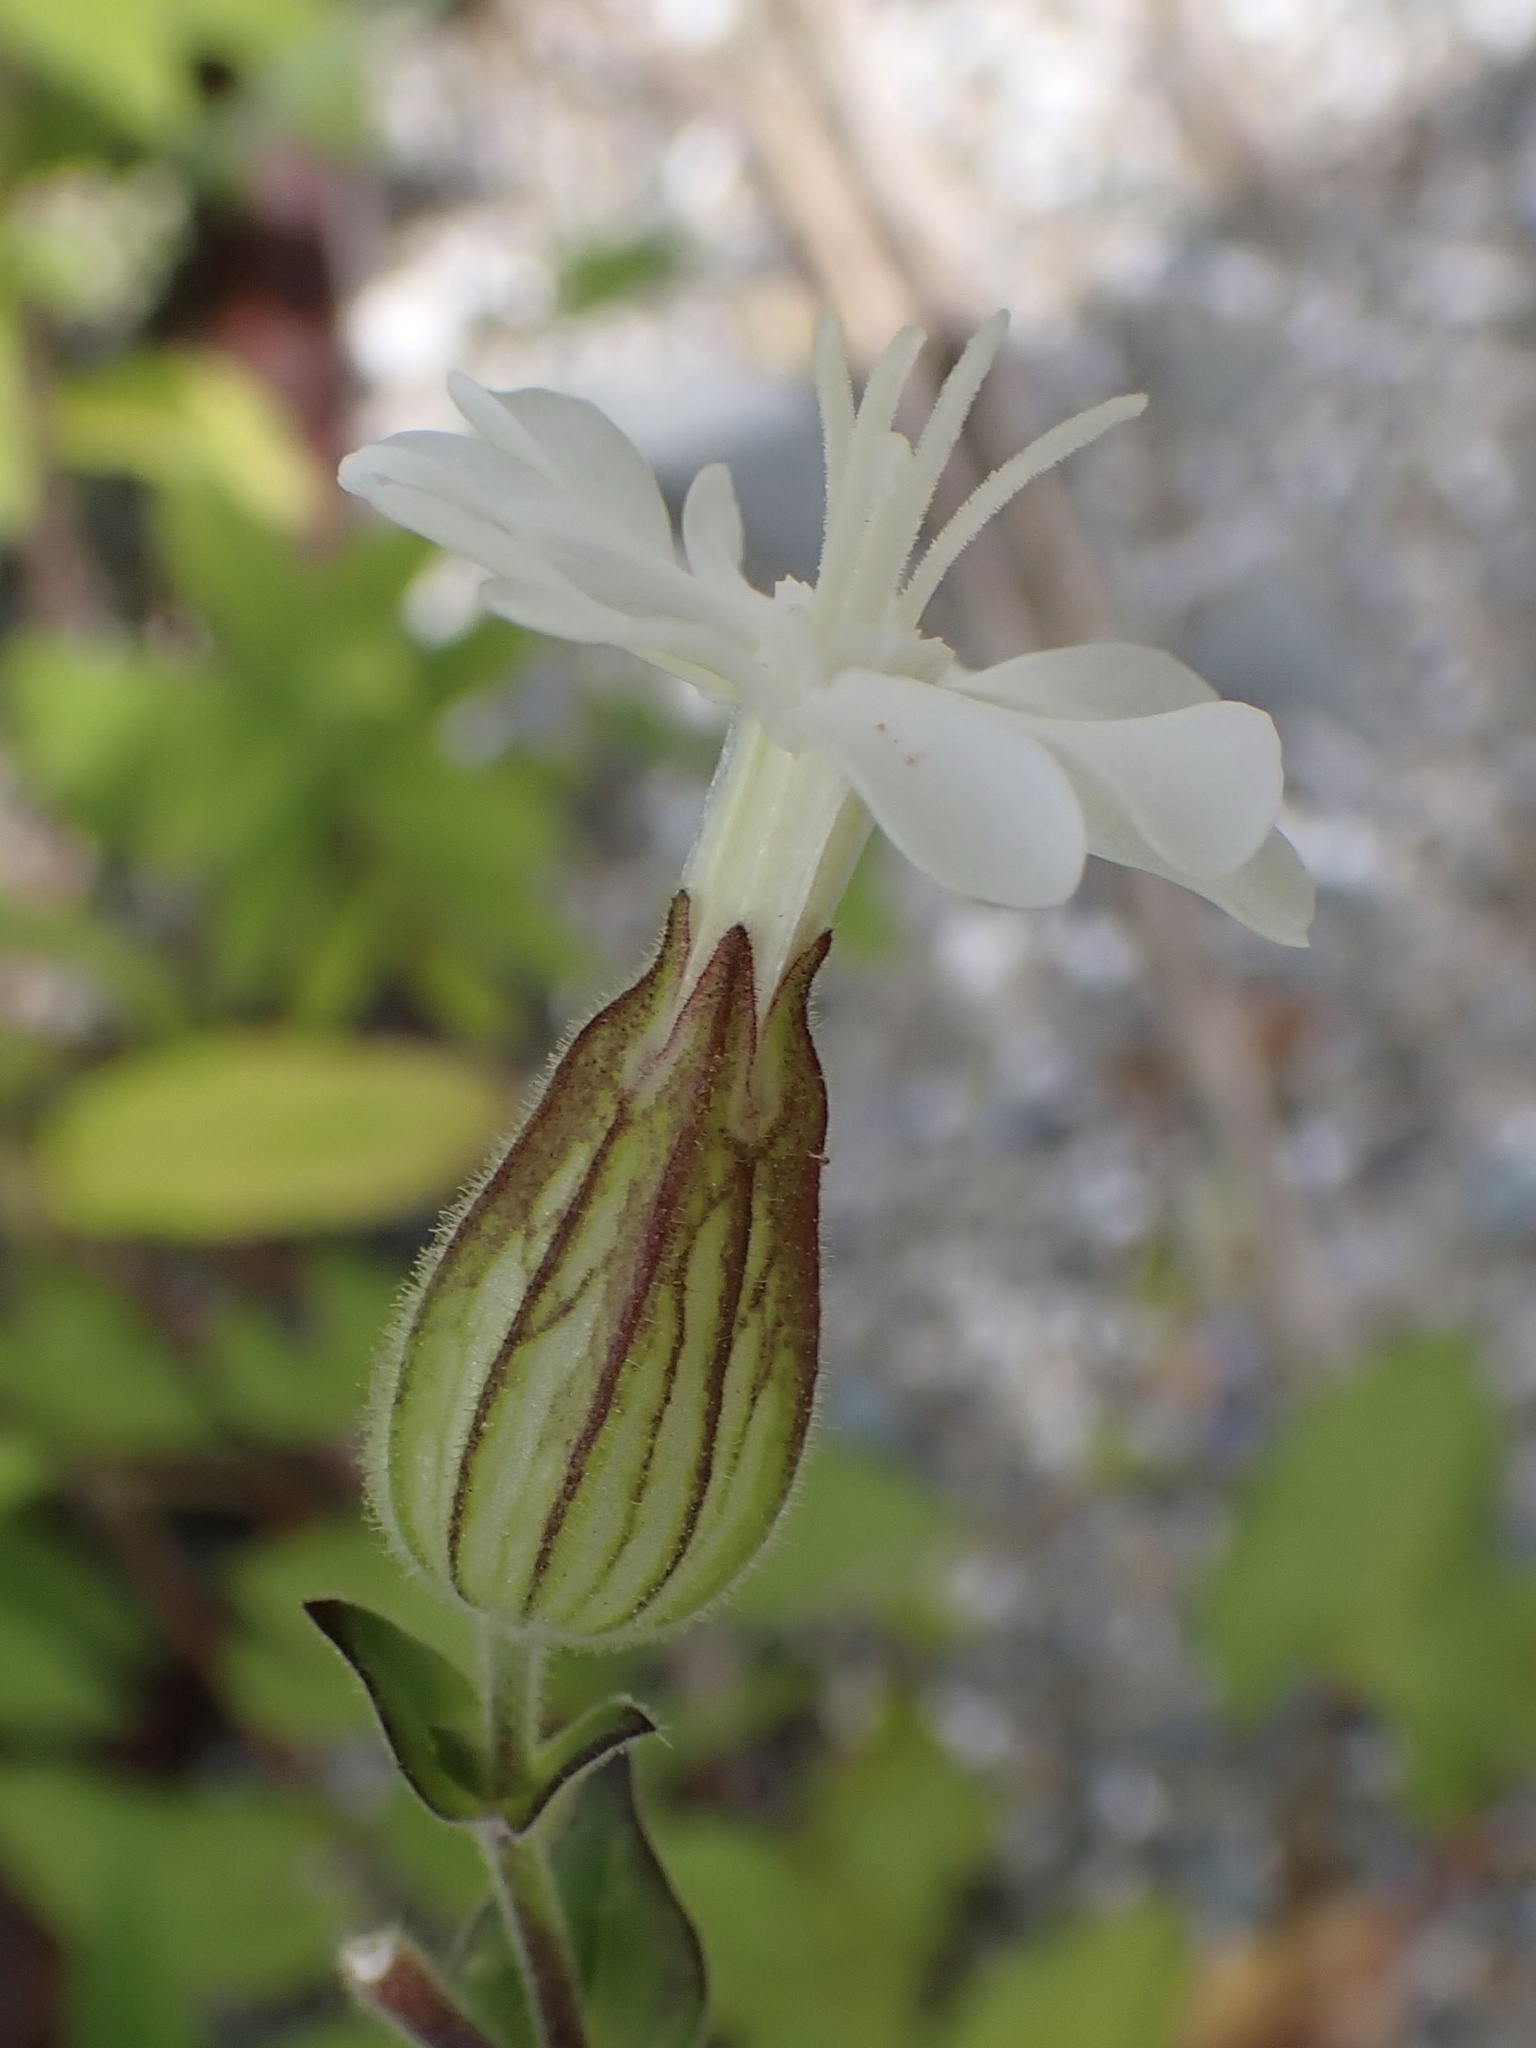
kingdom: Plantae
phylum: Tracheophyta
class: Magnoliopsida
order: Caryophyllales
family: Caryophyllaceae
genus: Silene
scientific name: Silene latifolia
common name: White campion
